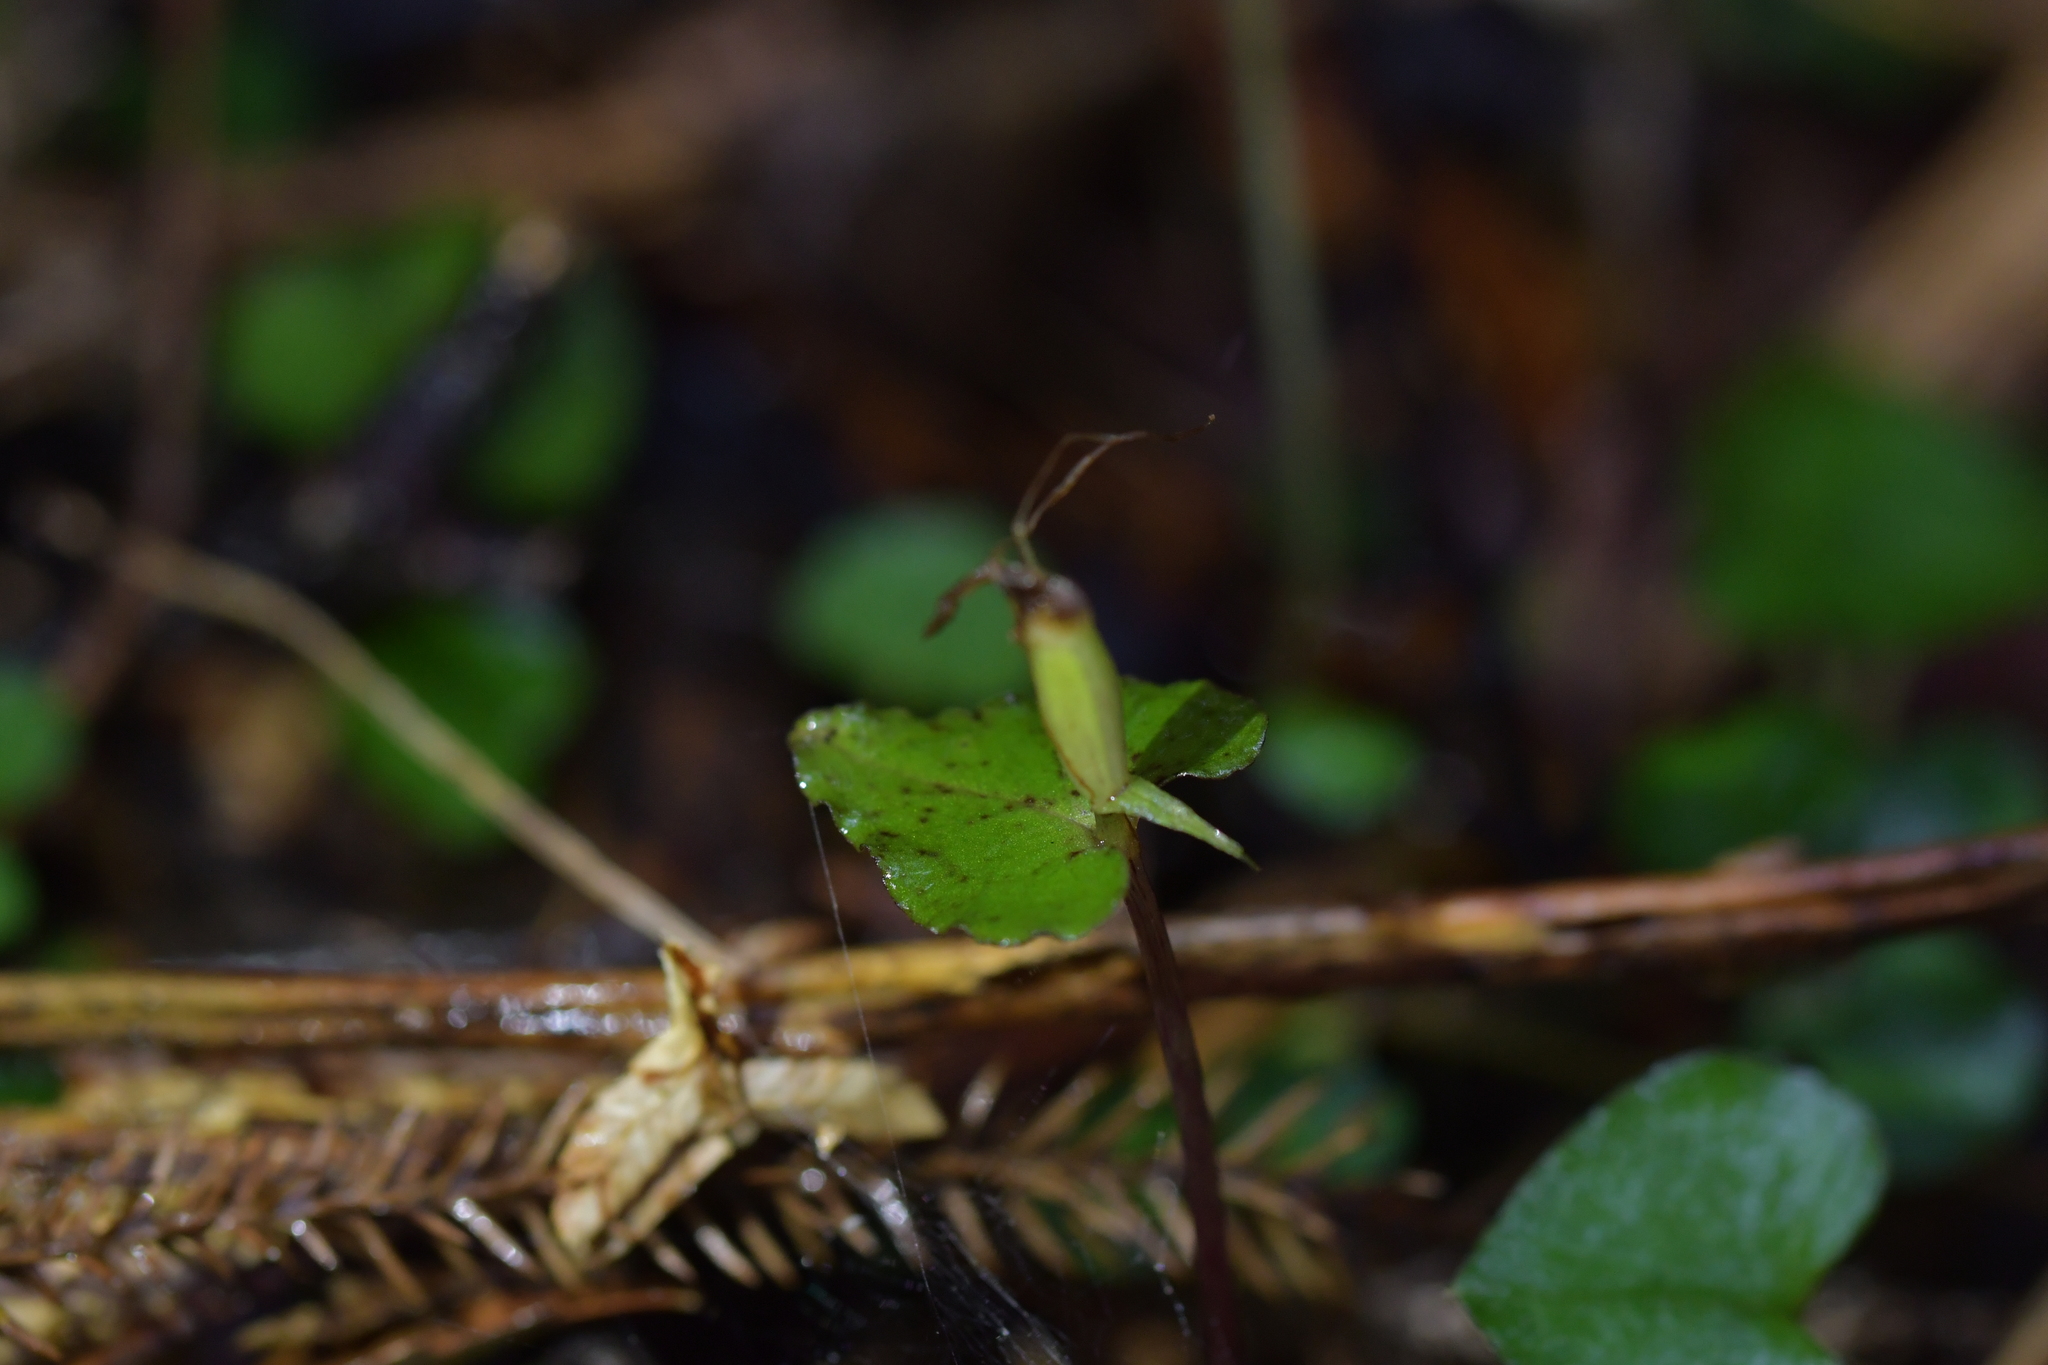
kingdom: Plantae
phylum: Tracheophyta
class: Liliopsida
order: Asparagales
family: Orchidaceae
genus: Corybas
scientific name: Corybas acuminatus
